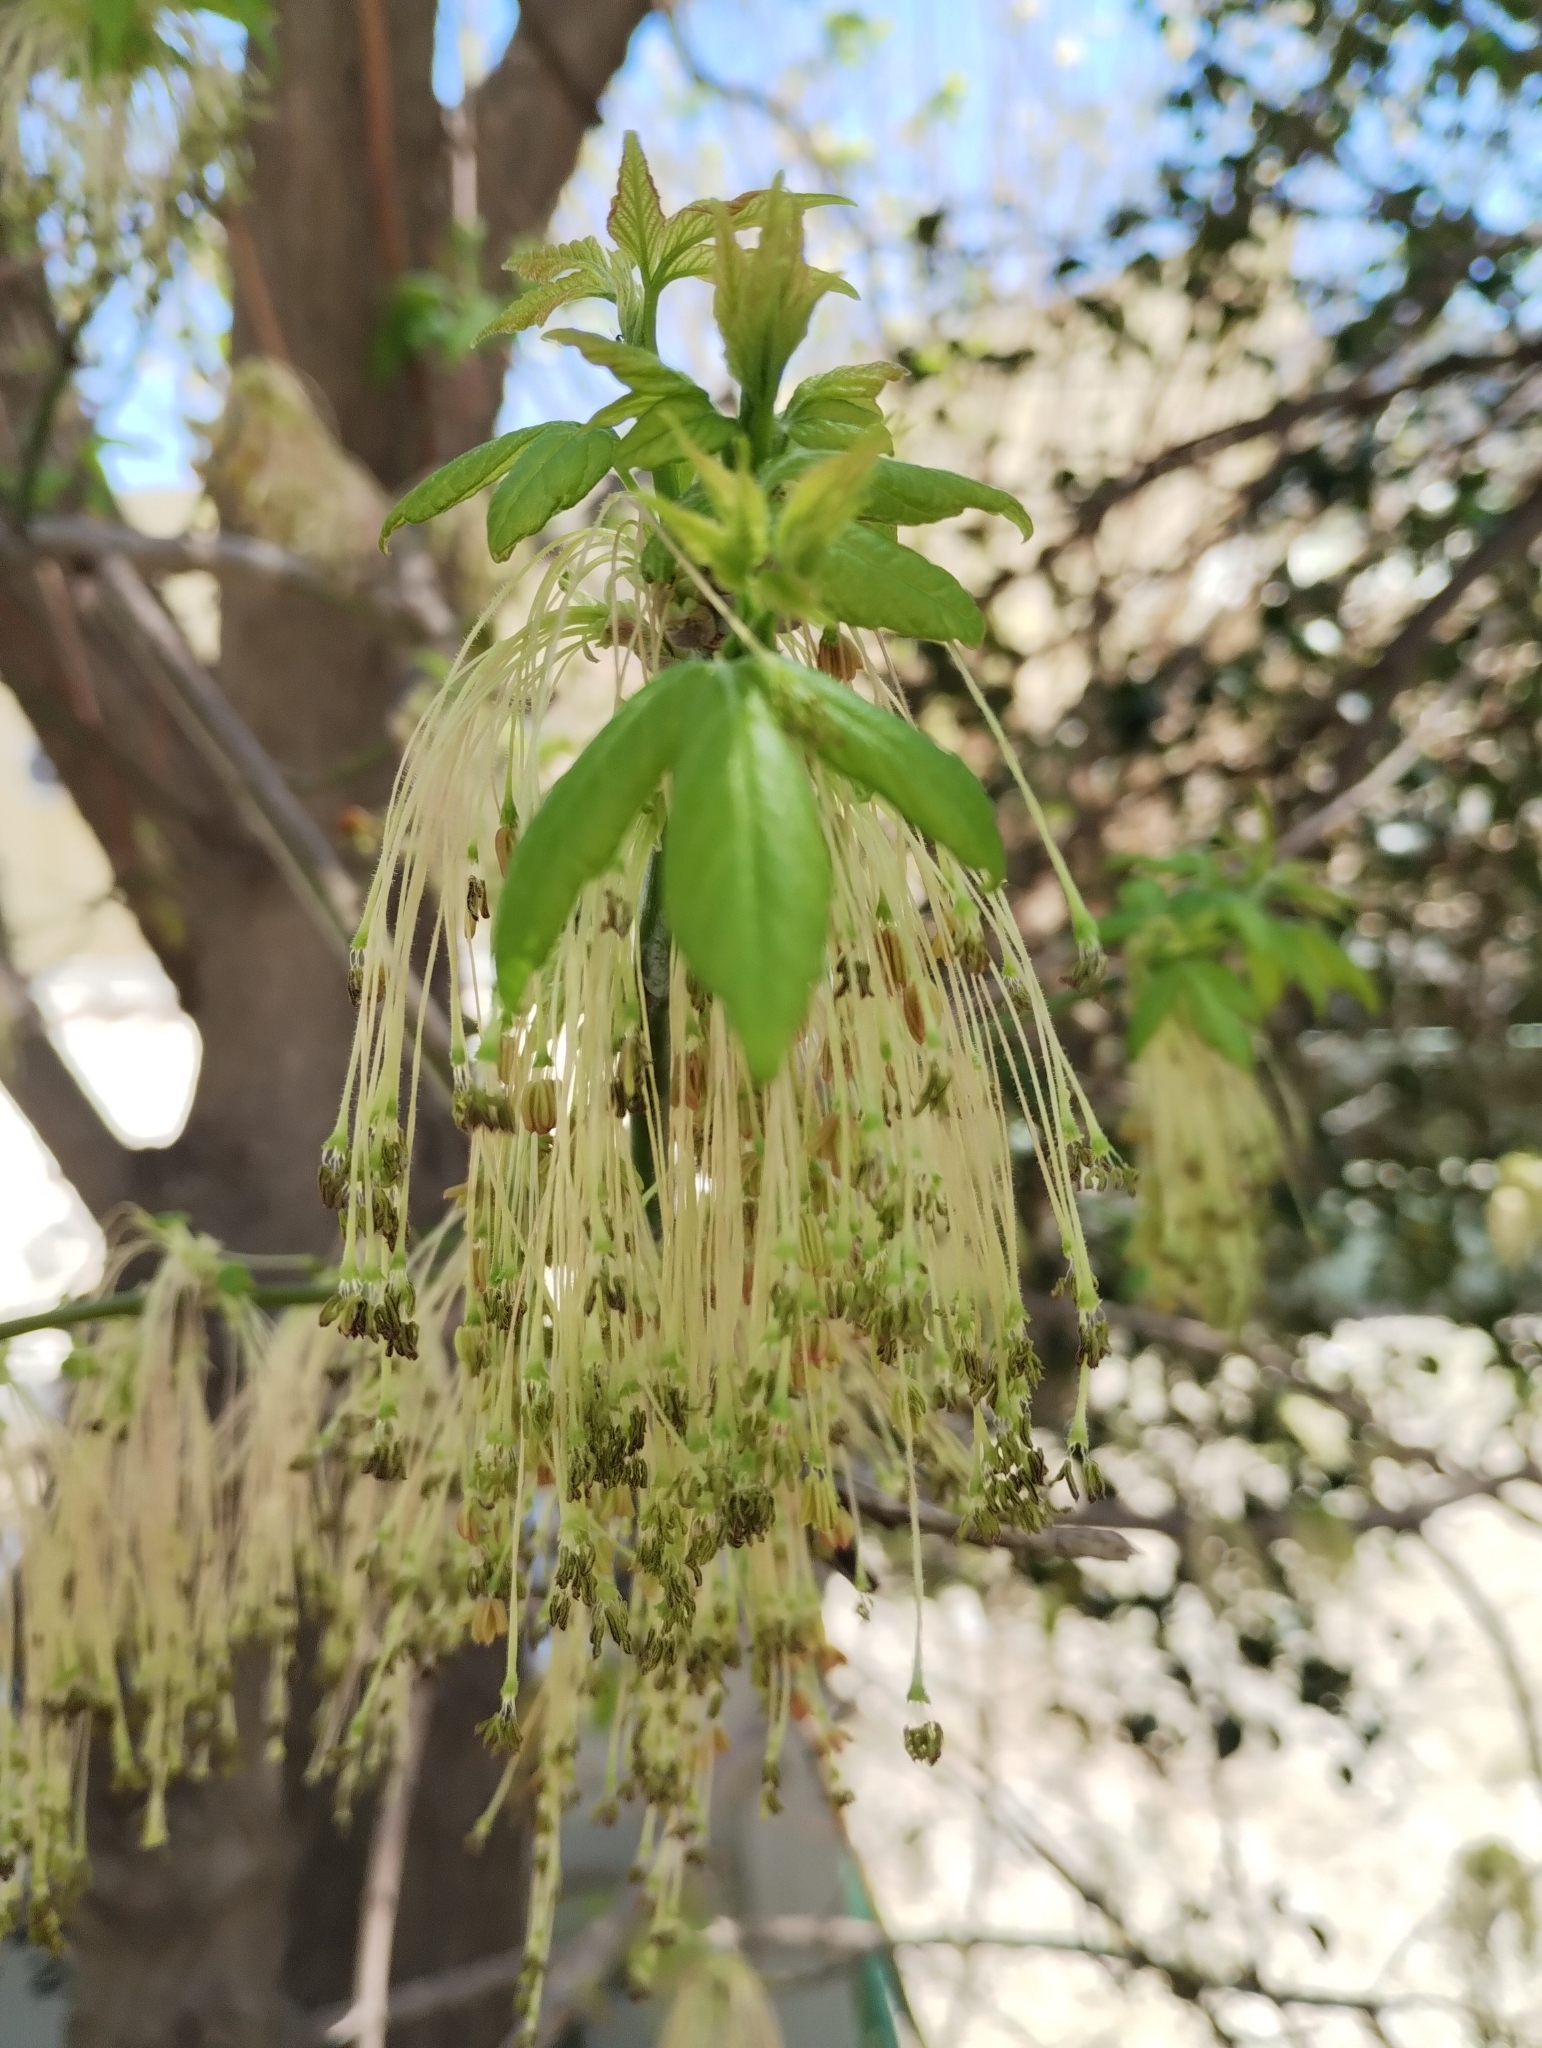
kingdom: Plantae
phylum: Tracheophyta
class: Magnoliopsida
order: Sapindales
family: Sapindaceae
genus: Acer
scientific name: Acer negundo
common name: Ashleaf maple
